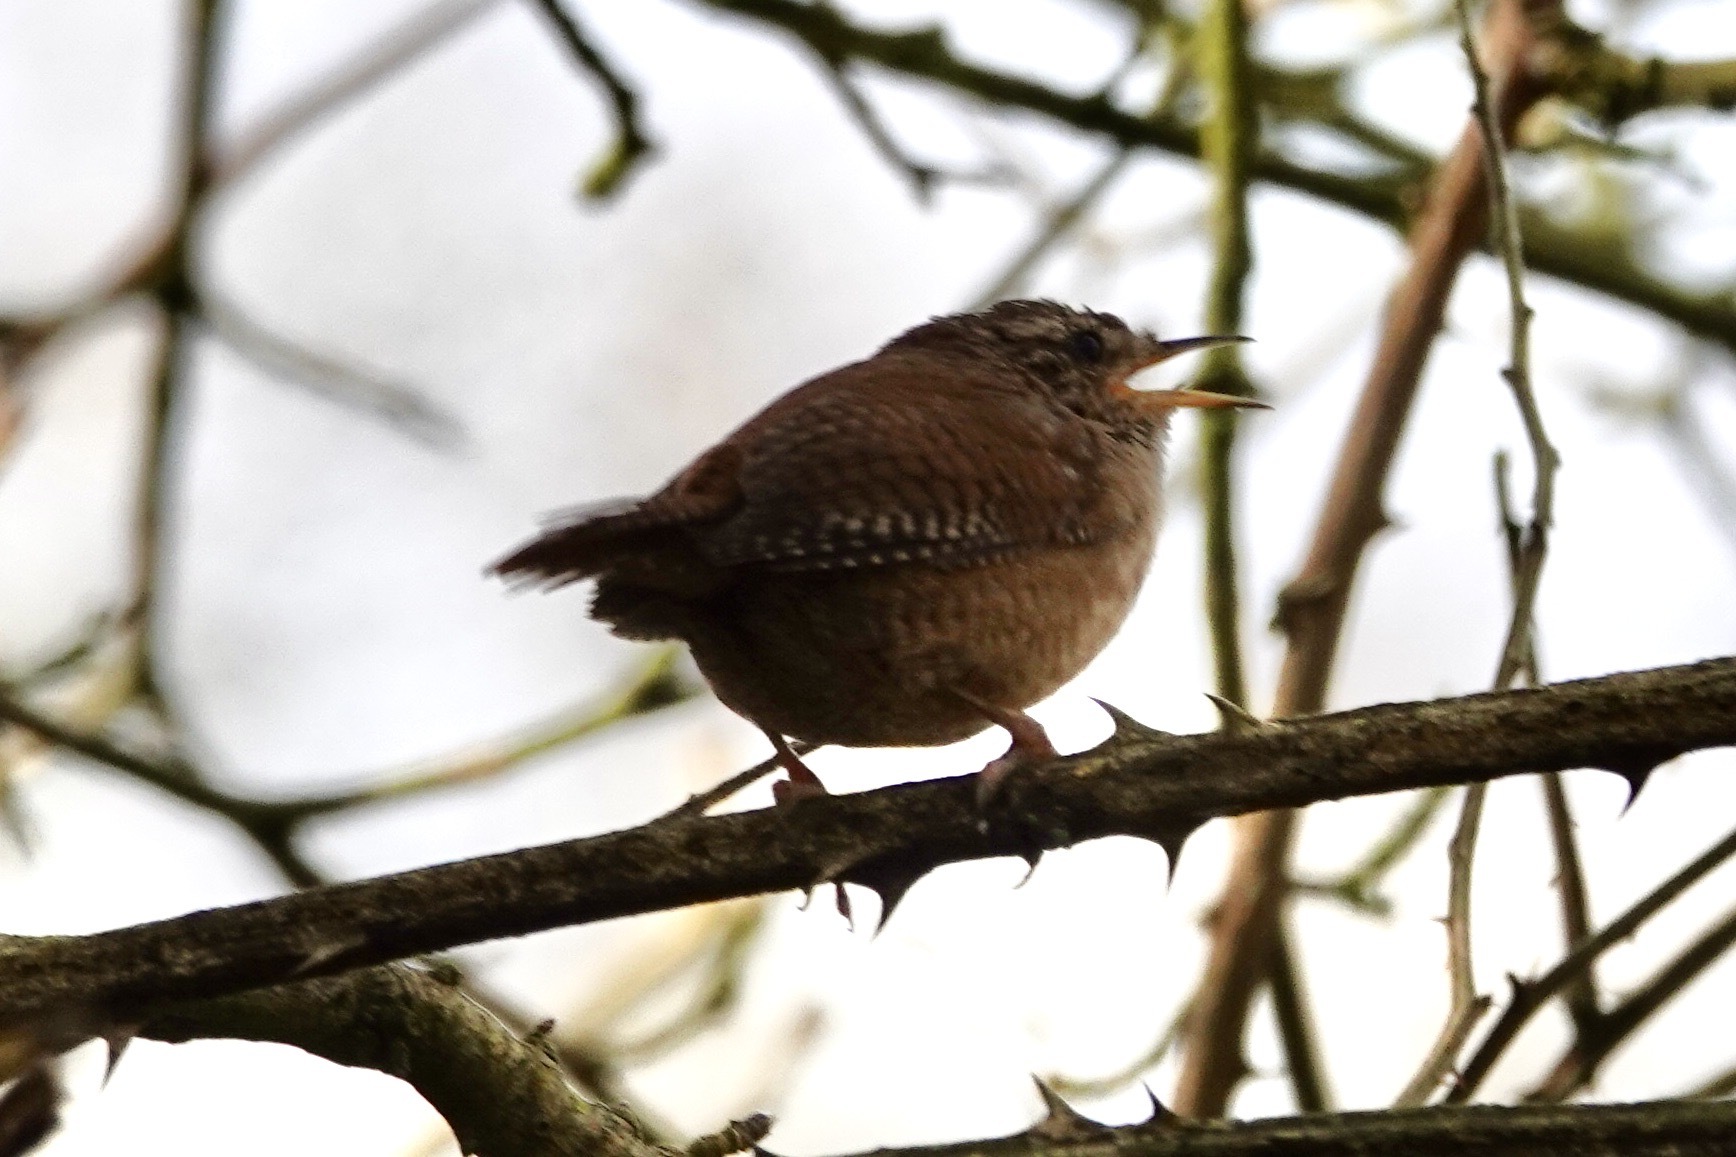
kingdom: Animalia
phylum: Chordata
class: Aves
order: Passeriformes
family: Troglodytidae
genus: Troglodytes
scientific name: Troglodytes troglodytes
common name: Eurasian wren
